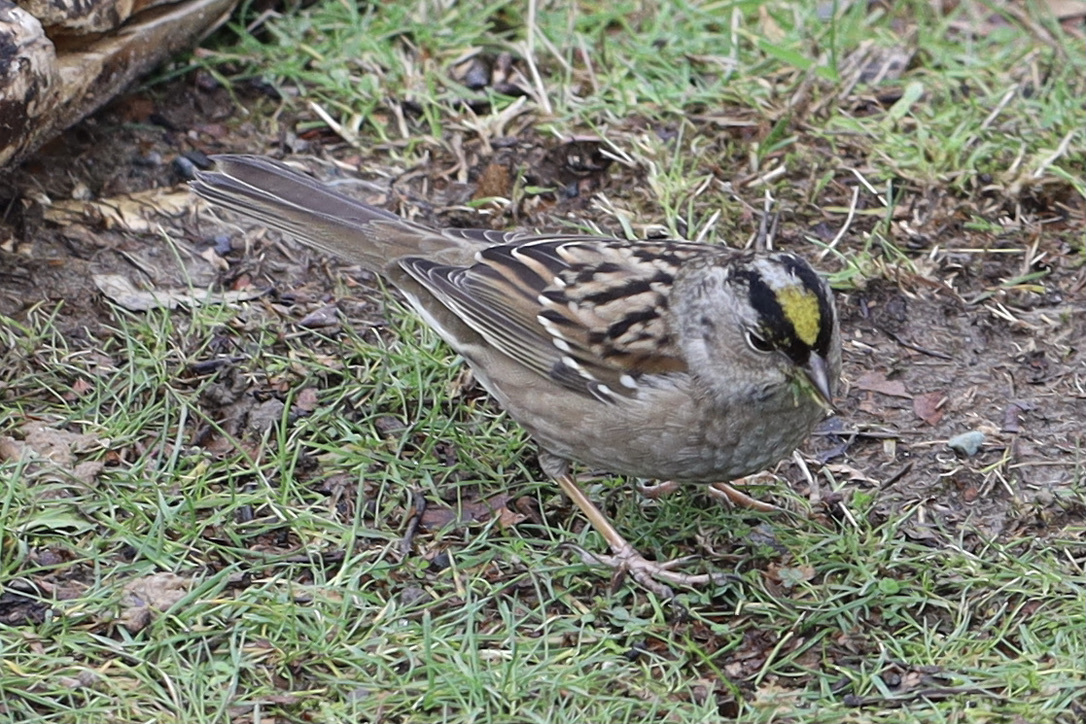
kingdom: Animalia
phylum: Chordata
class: Aves
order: Passeriformes
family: Passerellidae
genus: Zonotrichia
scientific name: Zonotrichia atricapilla
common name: Golden-crowned sparrow
